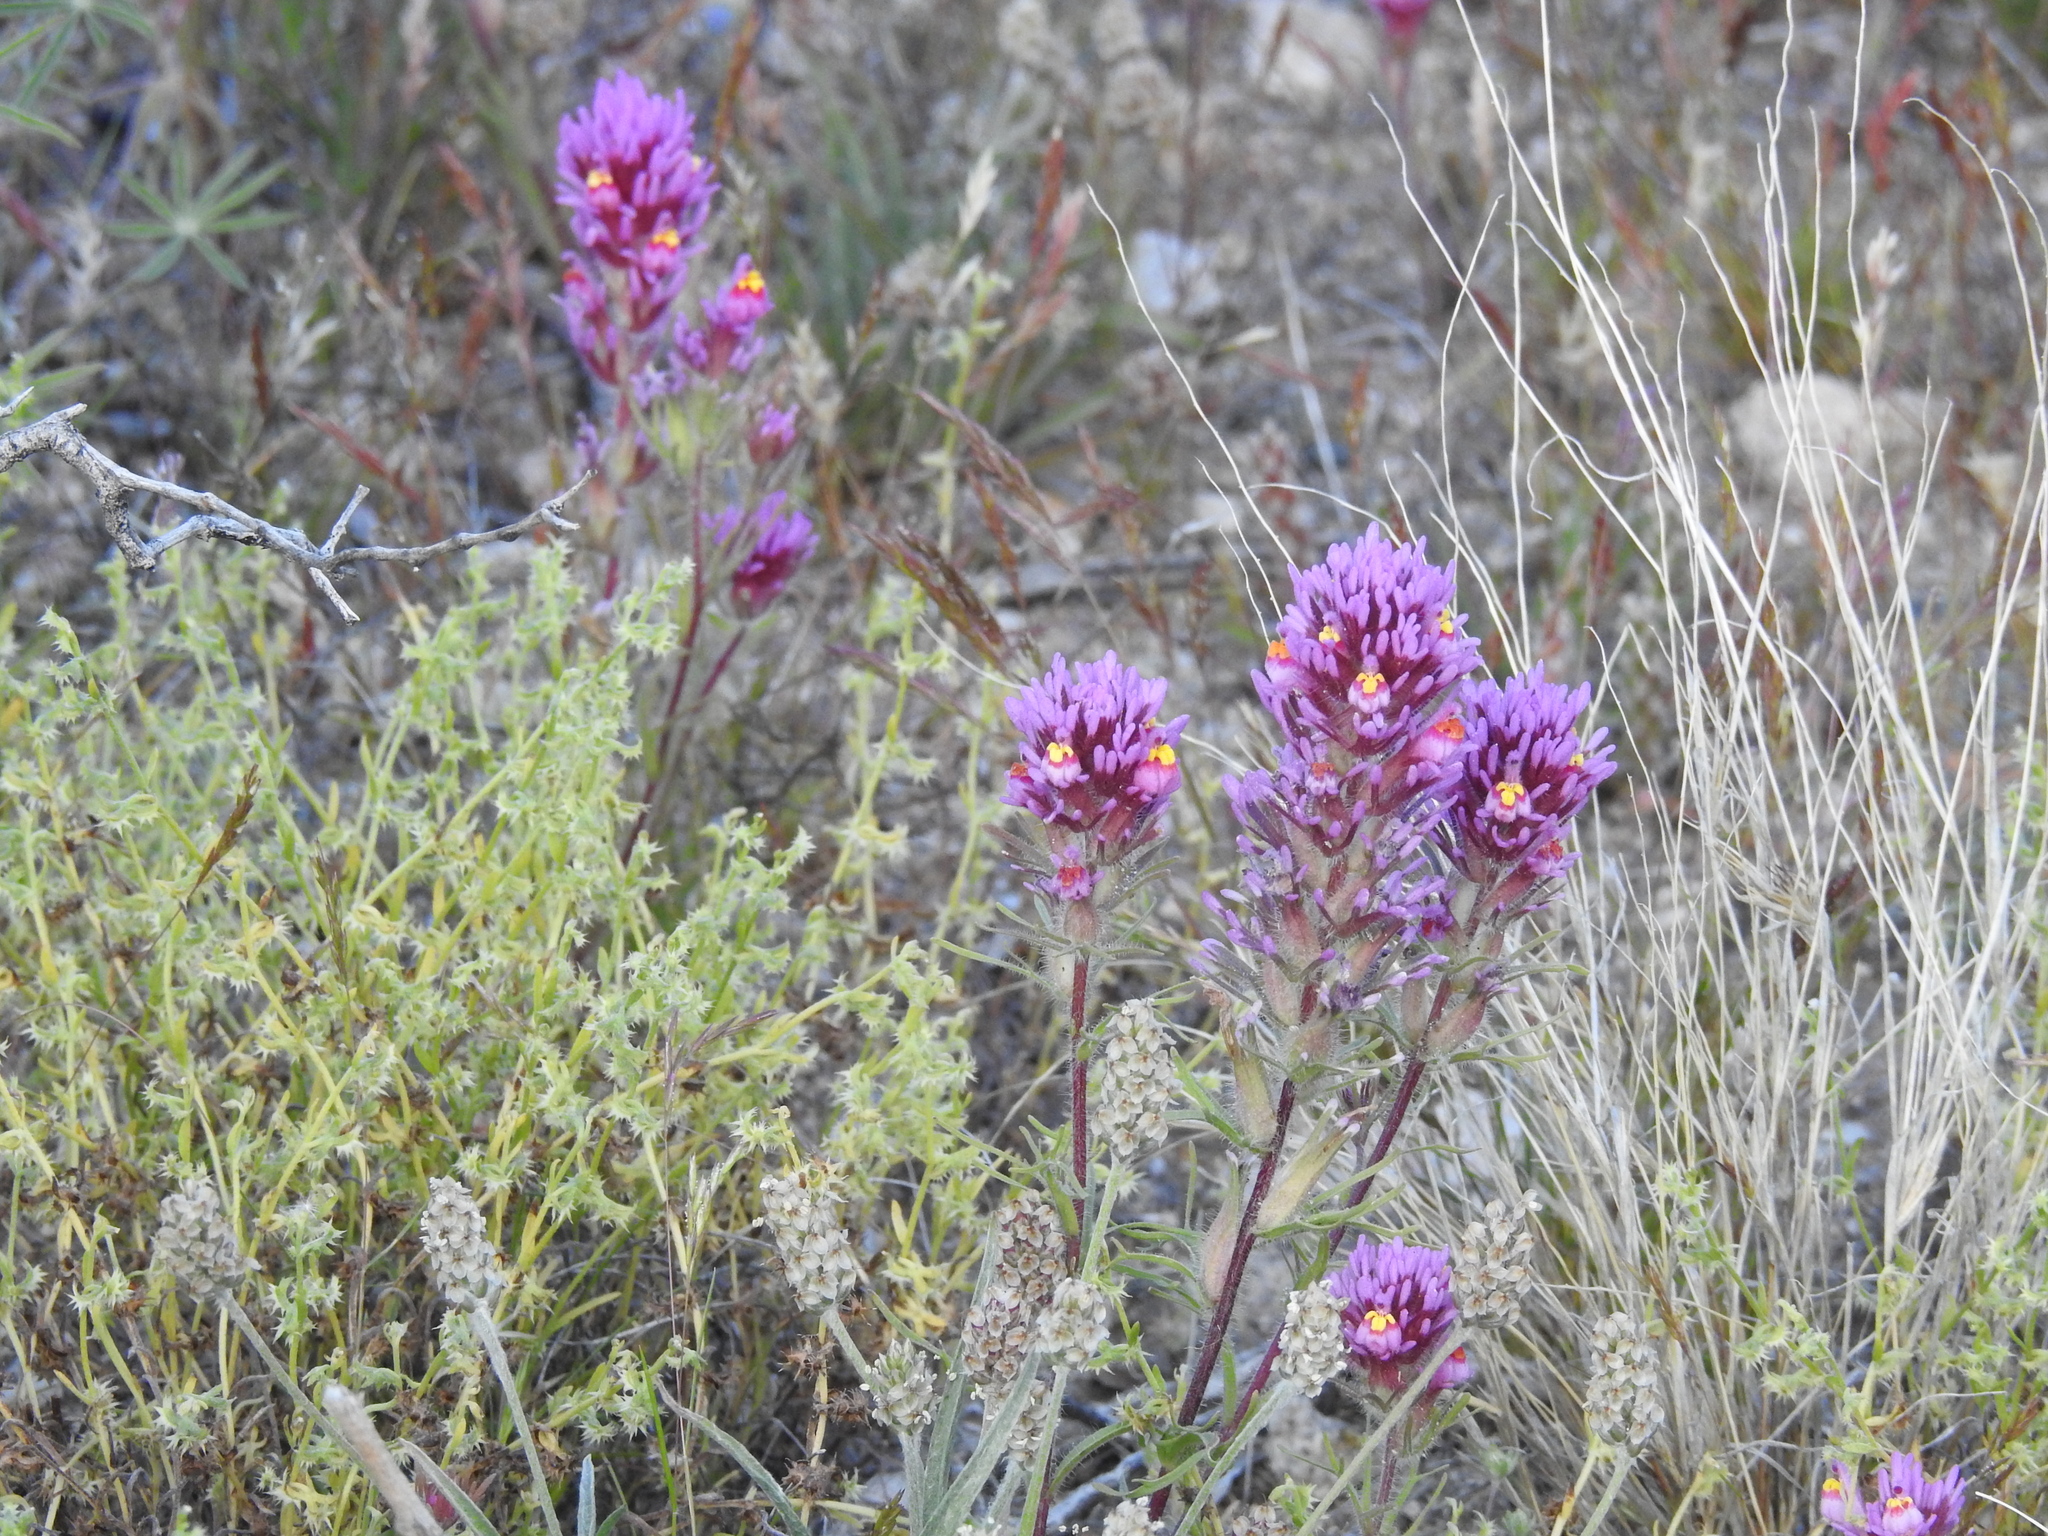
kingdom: Plantae
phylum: Tracheophyta
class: Magnoliopsida
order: Lamiales
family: Orobanchaceae
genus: Castilleja
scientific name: Castilleja exserta
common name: Purple owl-clover
